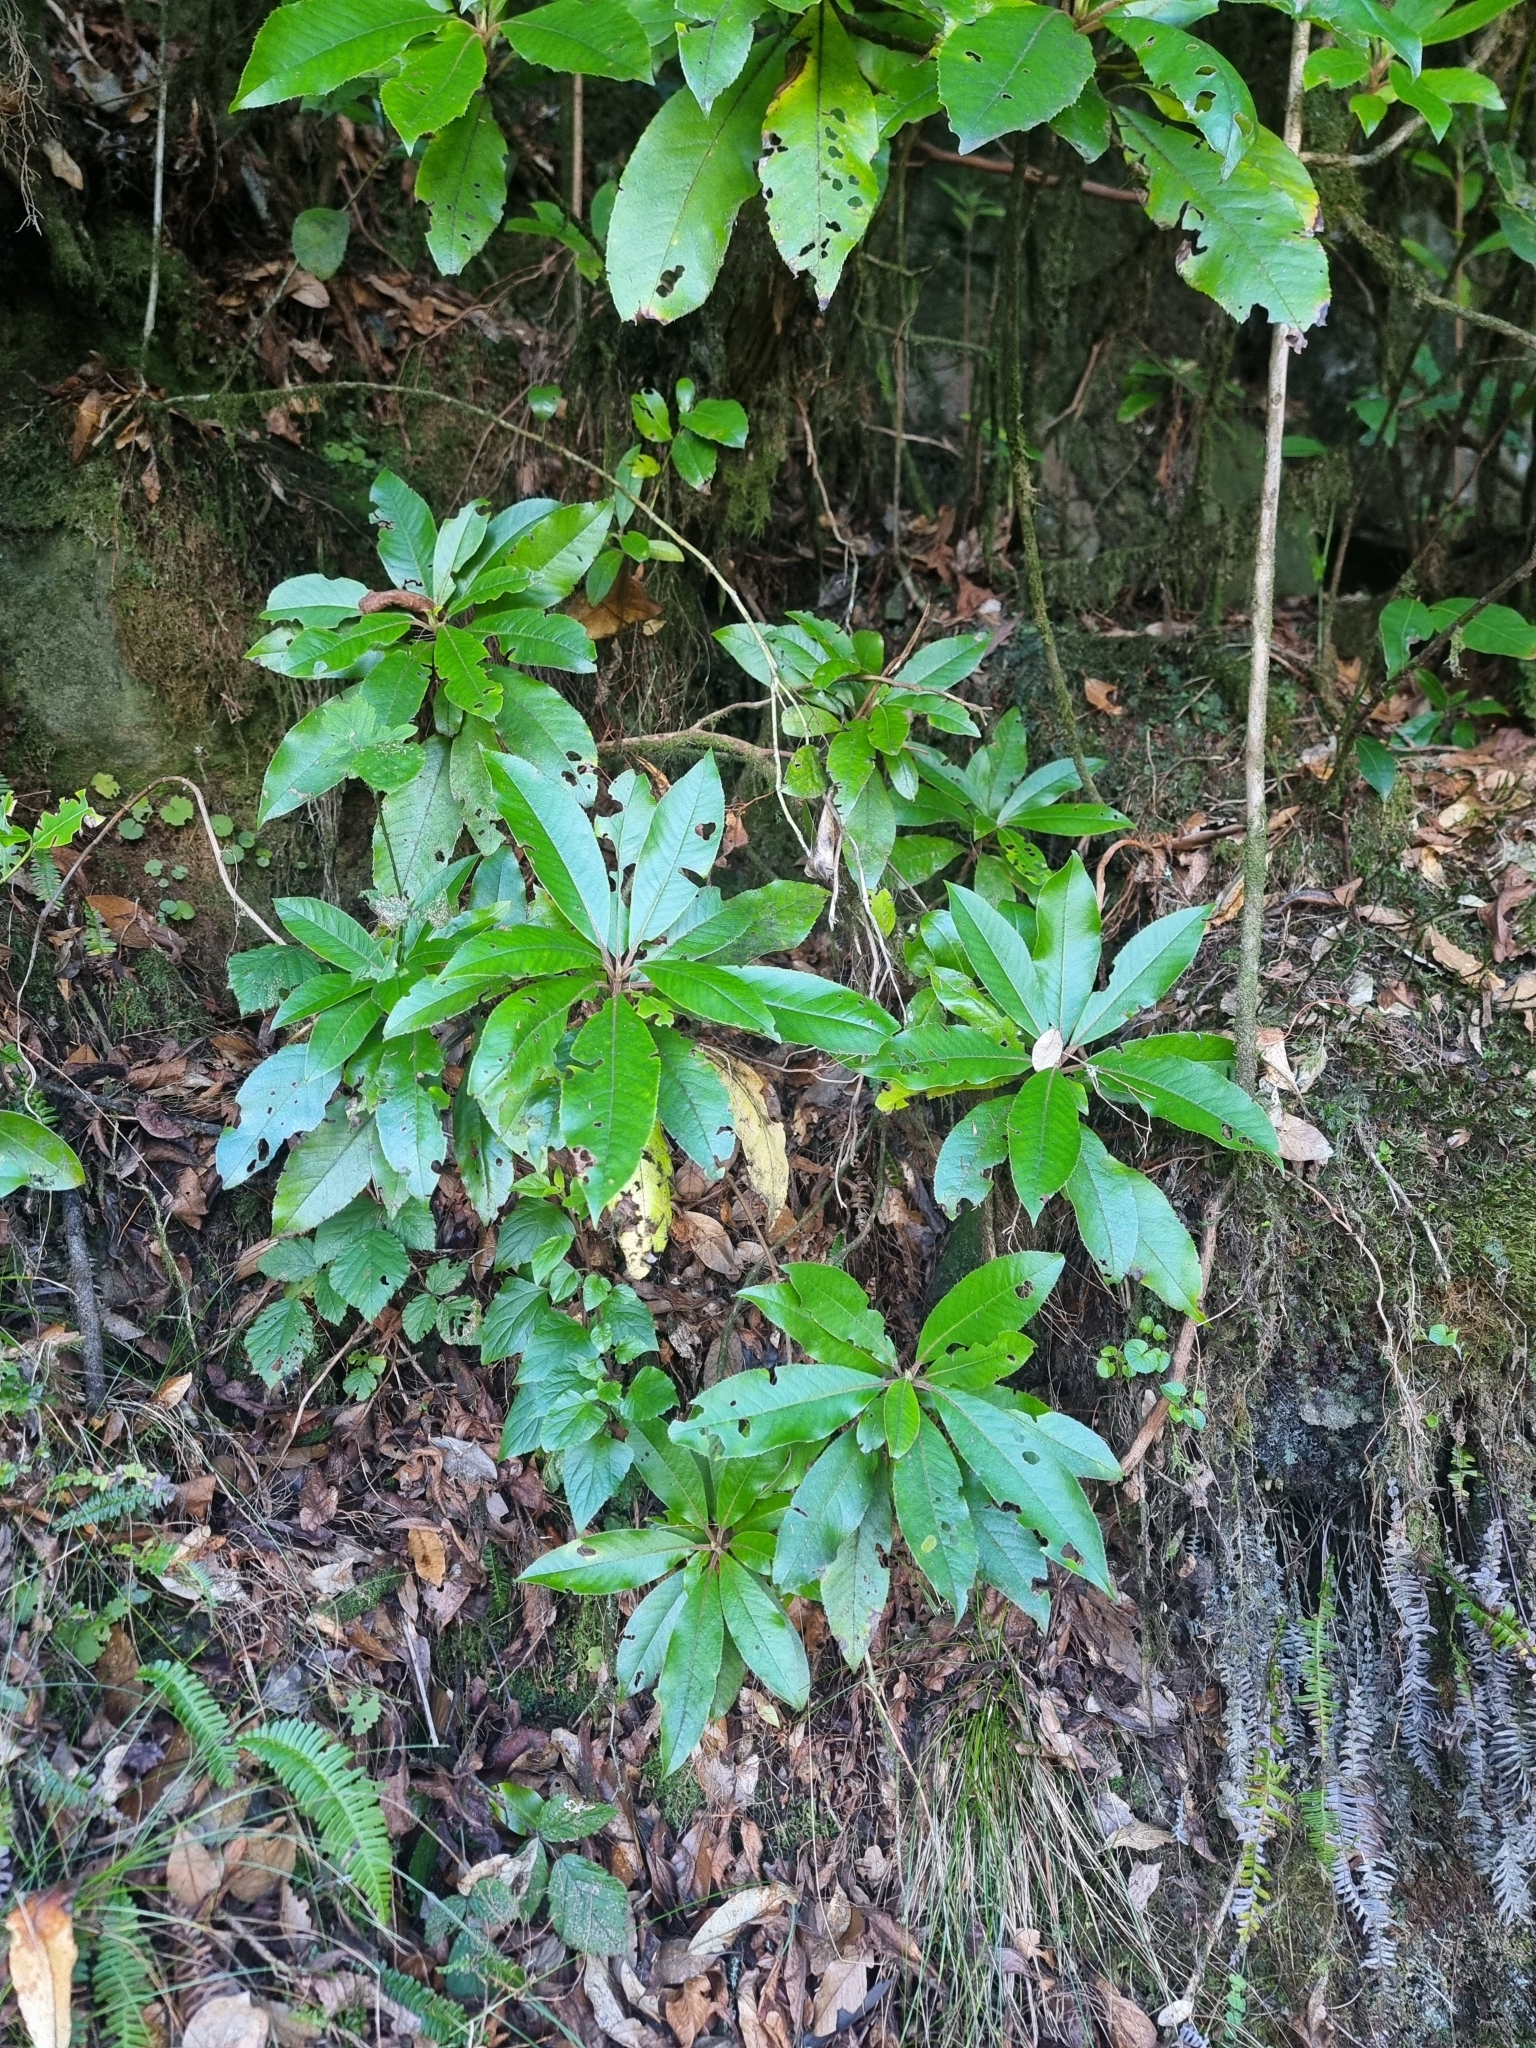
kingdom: Plantae
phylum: Tracheophyta
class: Magnoliopsida
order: Ericales
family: Clethraceae
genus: Clethra
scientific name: Clethra arborea
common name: Lily-of-the-valley-tree
